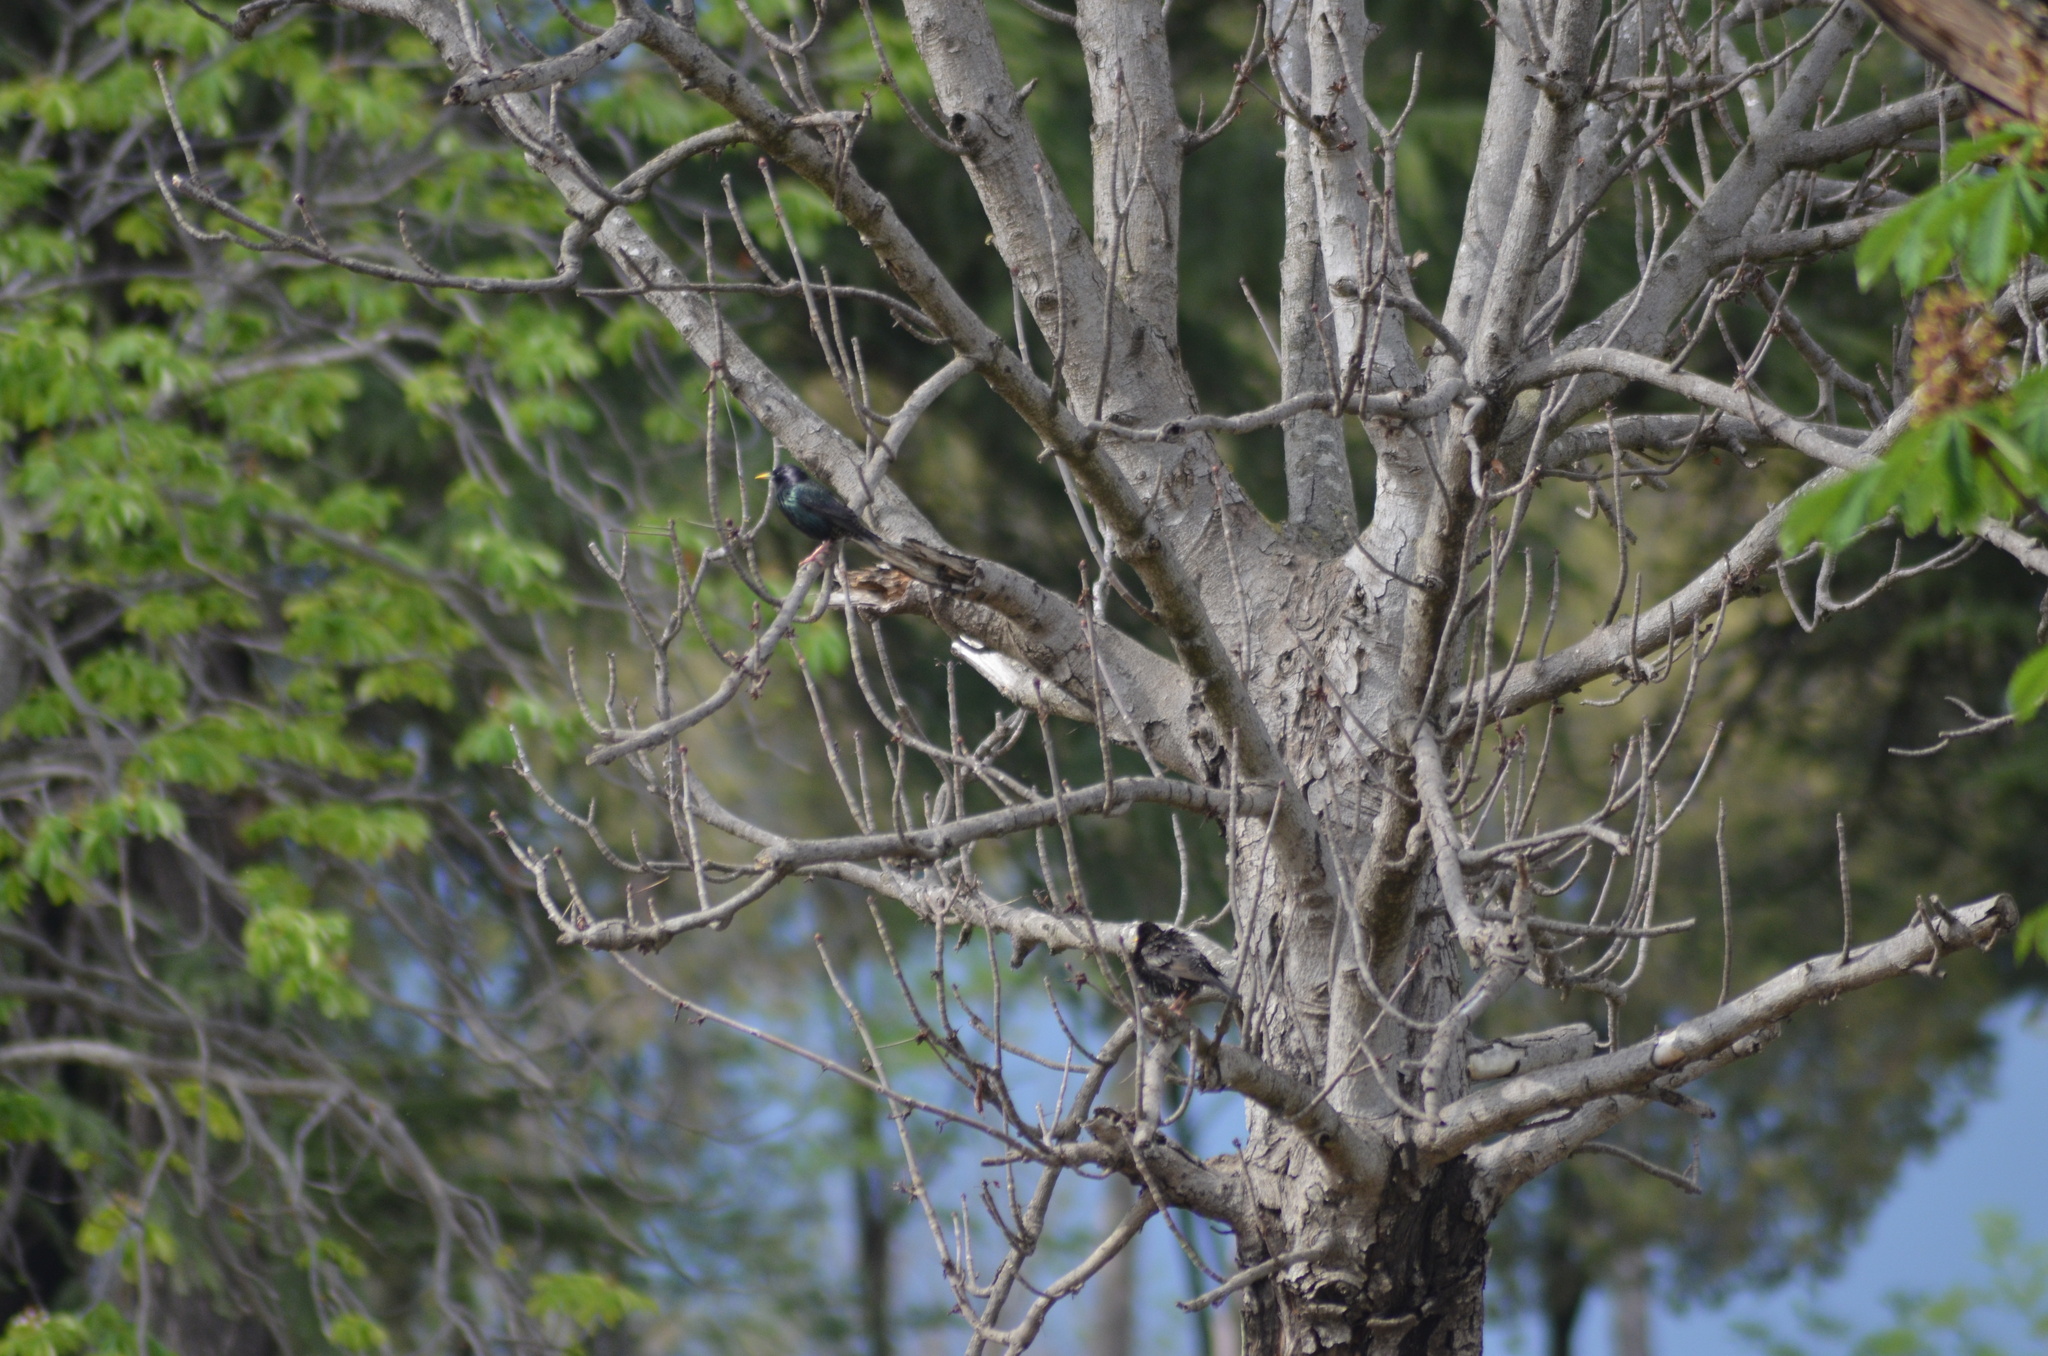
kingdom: Animalia
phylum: Chordata
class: Aves
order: Passeriformes
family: Sturnidae
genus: Sturnus
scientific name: Sturnus vulgaris
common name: Common starling
